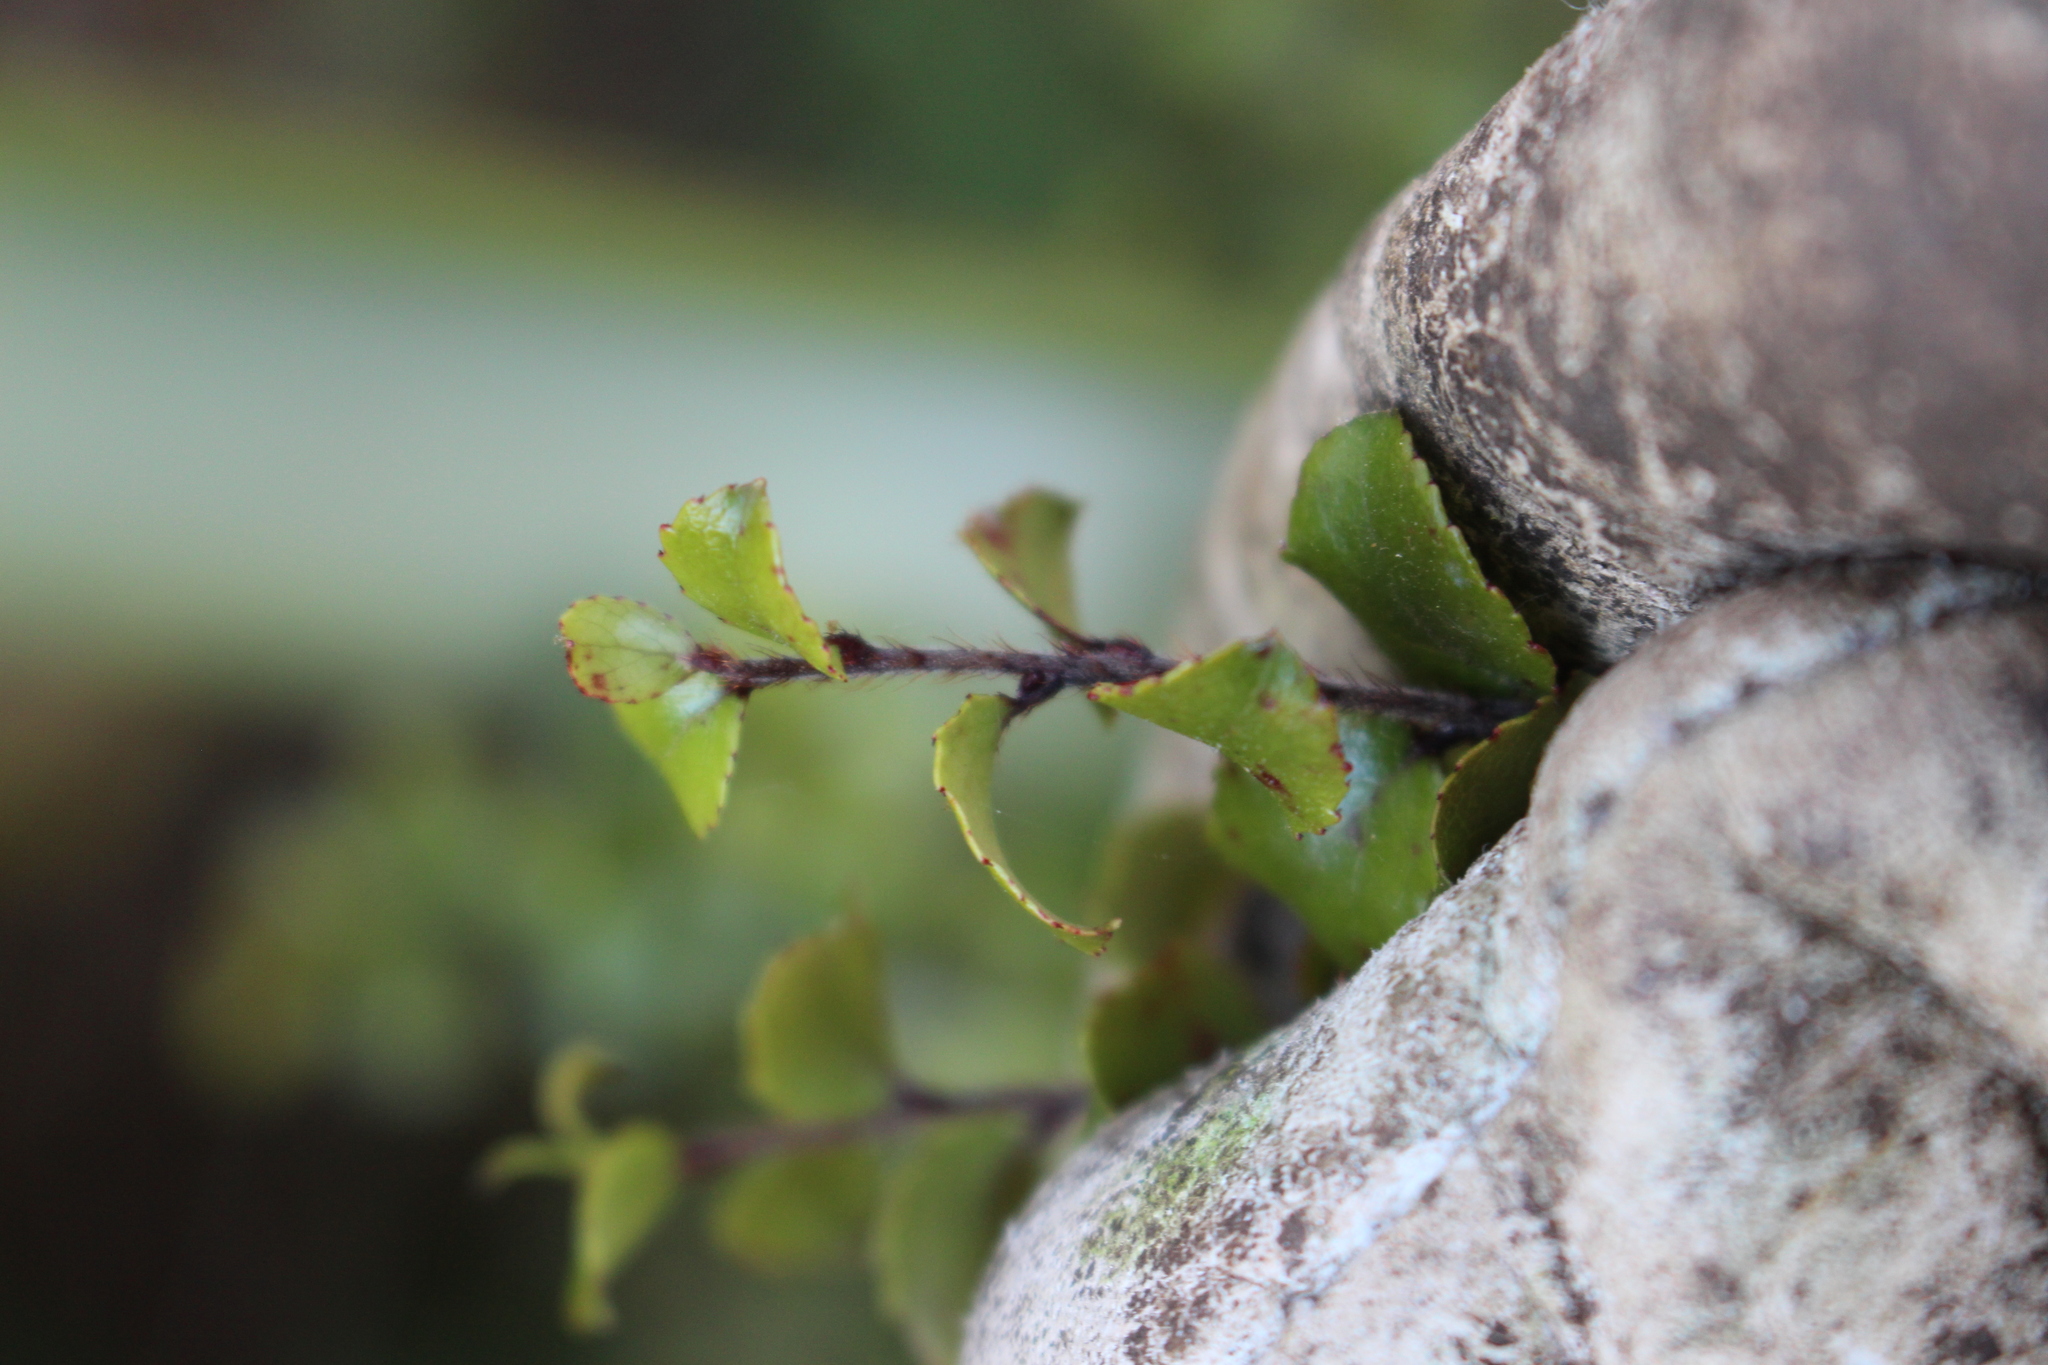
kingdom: Plantae
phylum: Tracheophyta
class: Magnoliopsida
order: Ericales
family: Ericaceae
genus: Gaultheria
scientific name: Gaultheria antipoda
